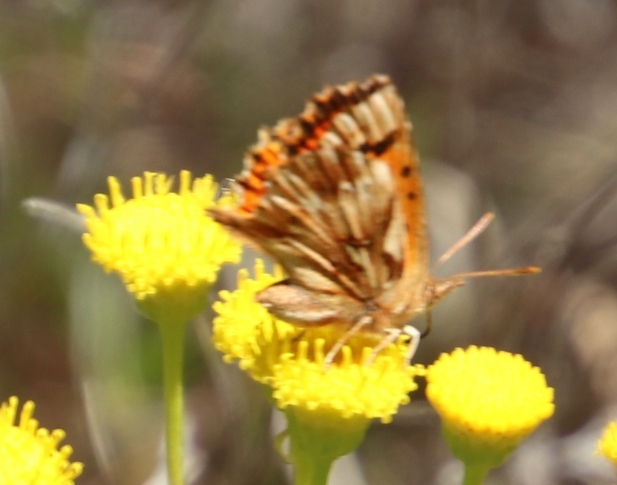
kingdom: Plantae
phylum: Tracheophyta
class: Magnoliopsida
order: Asterales
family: Asteraceae
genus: Chrysocoma
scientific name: Chrysocoma cernua
